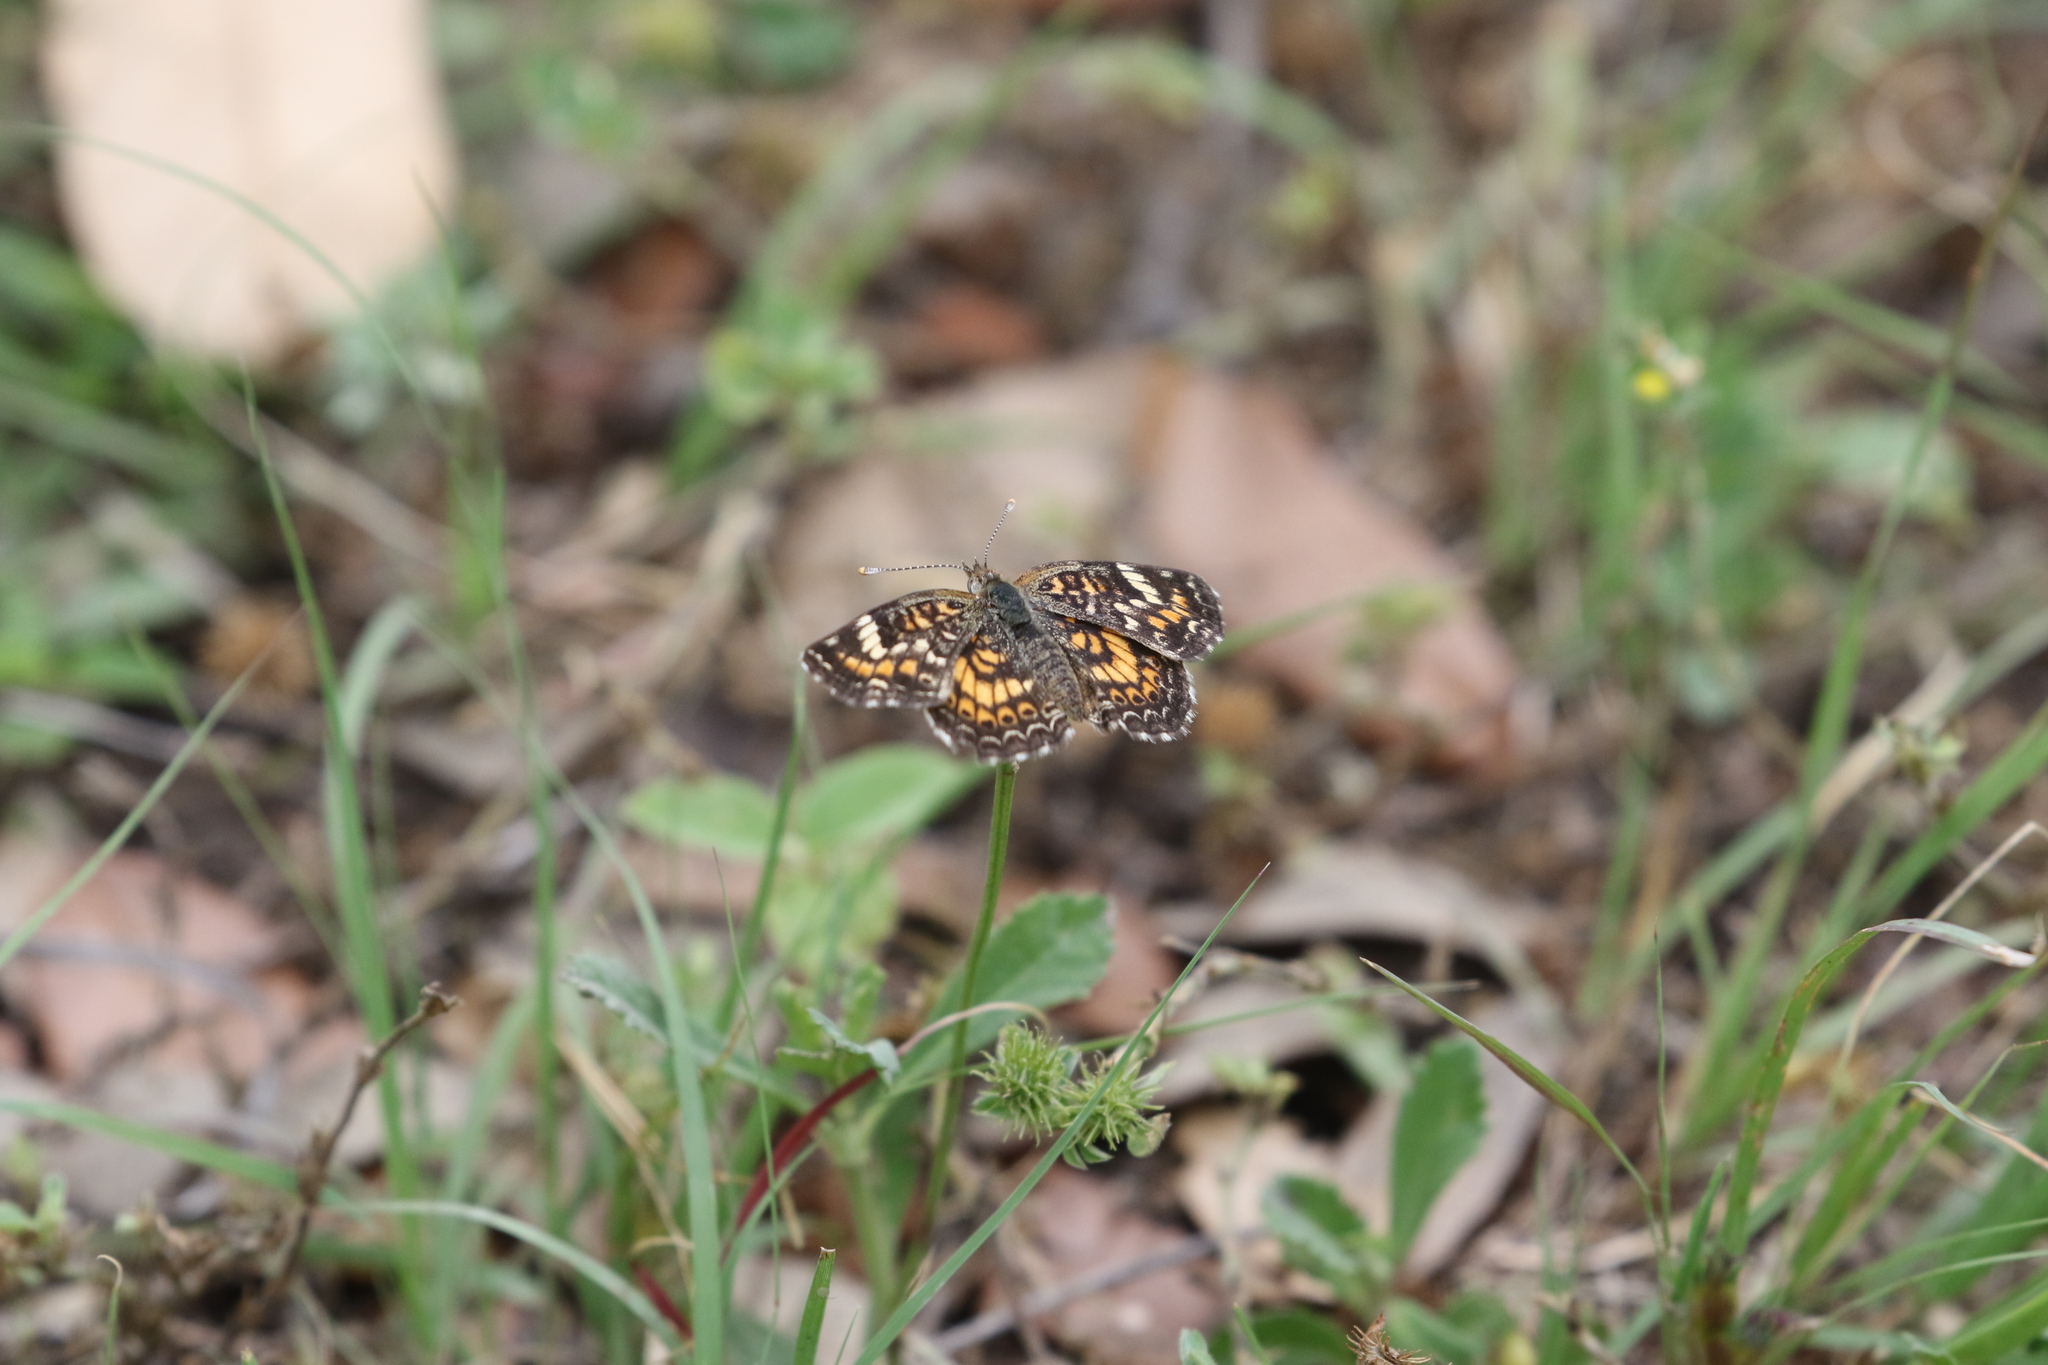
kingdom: Animalia
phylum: Arthropoda
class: Insecta
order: Lepidoptera
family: Nymphalidae
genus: Phyciodes
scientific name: Phyciodes phaon
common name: Phaon crescent
